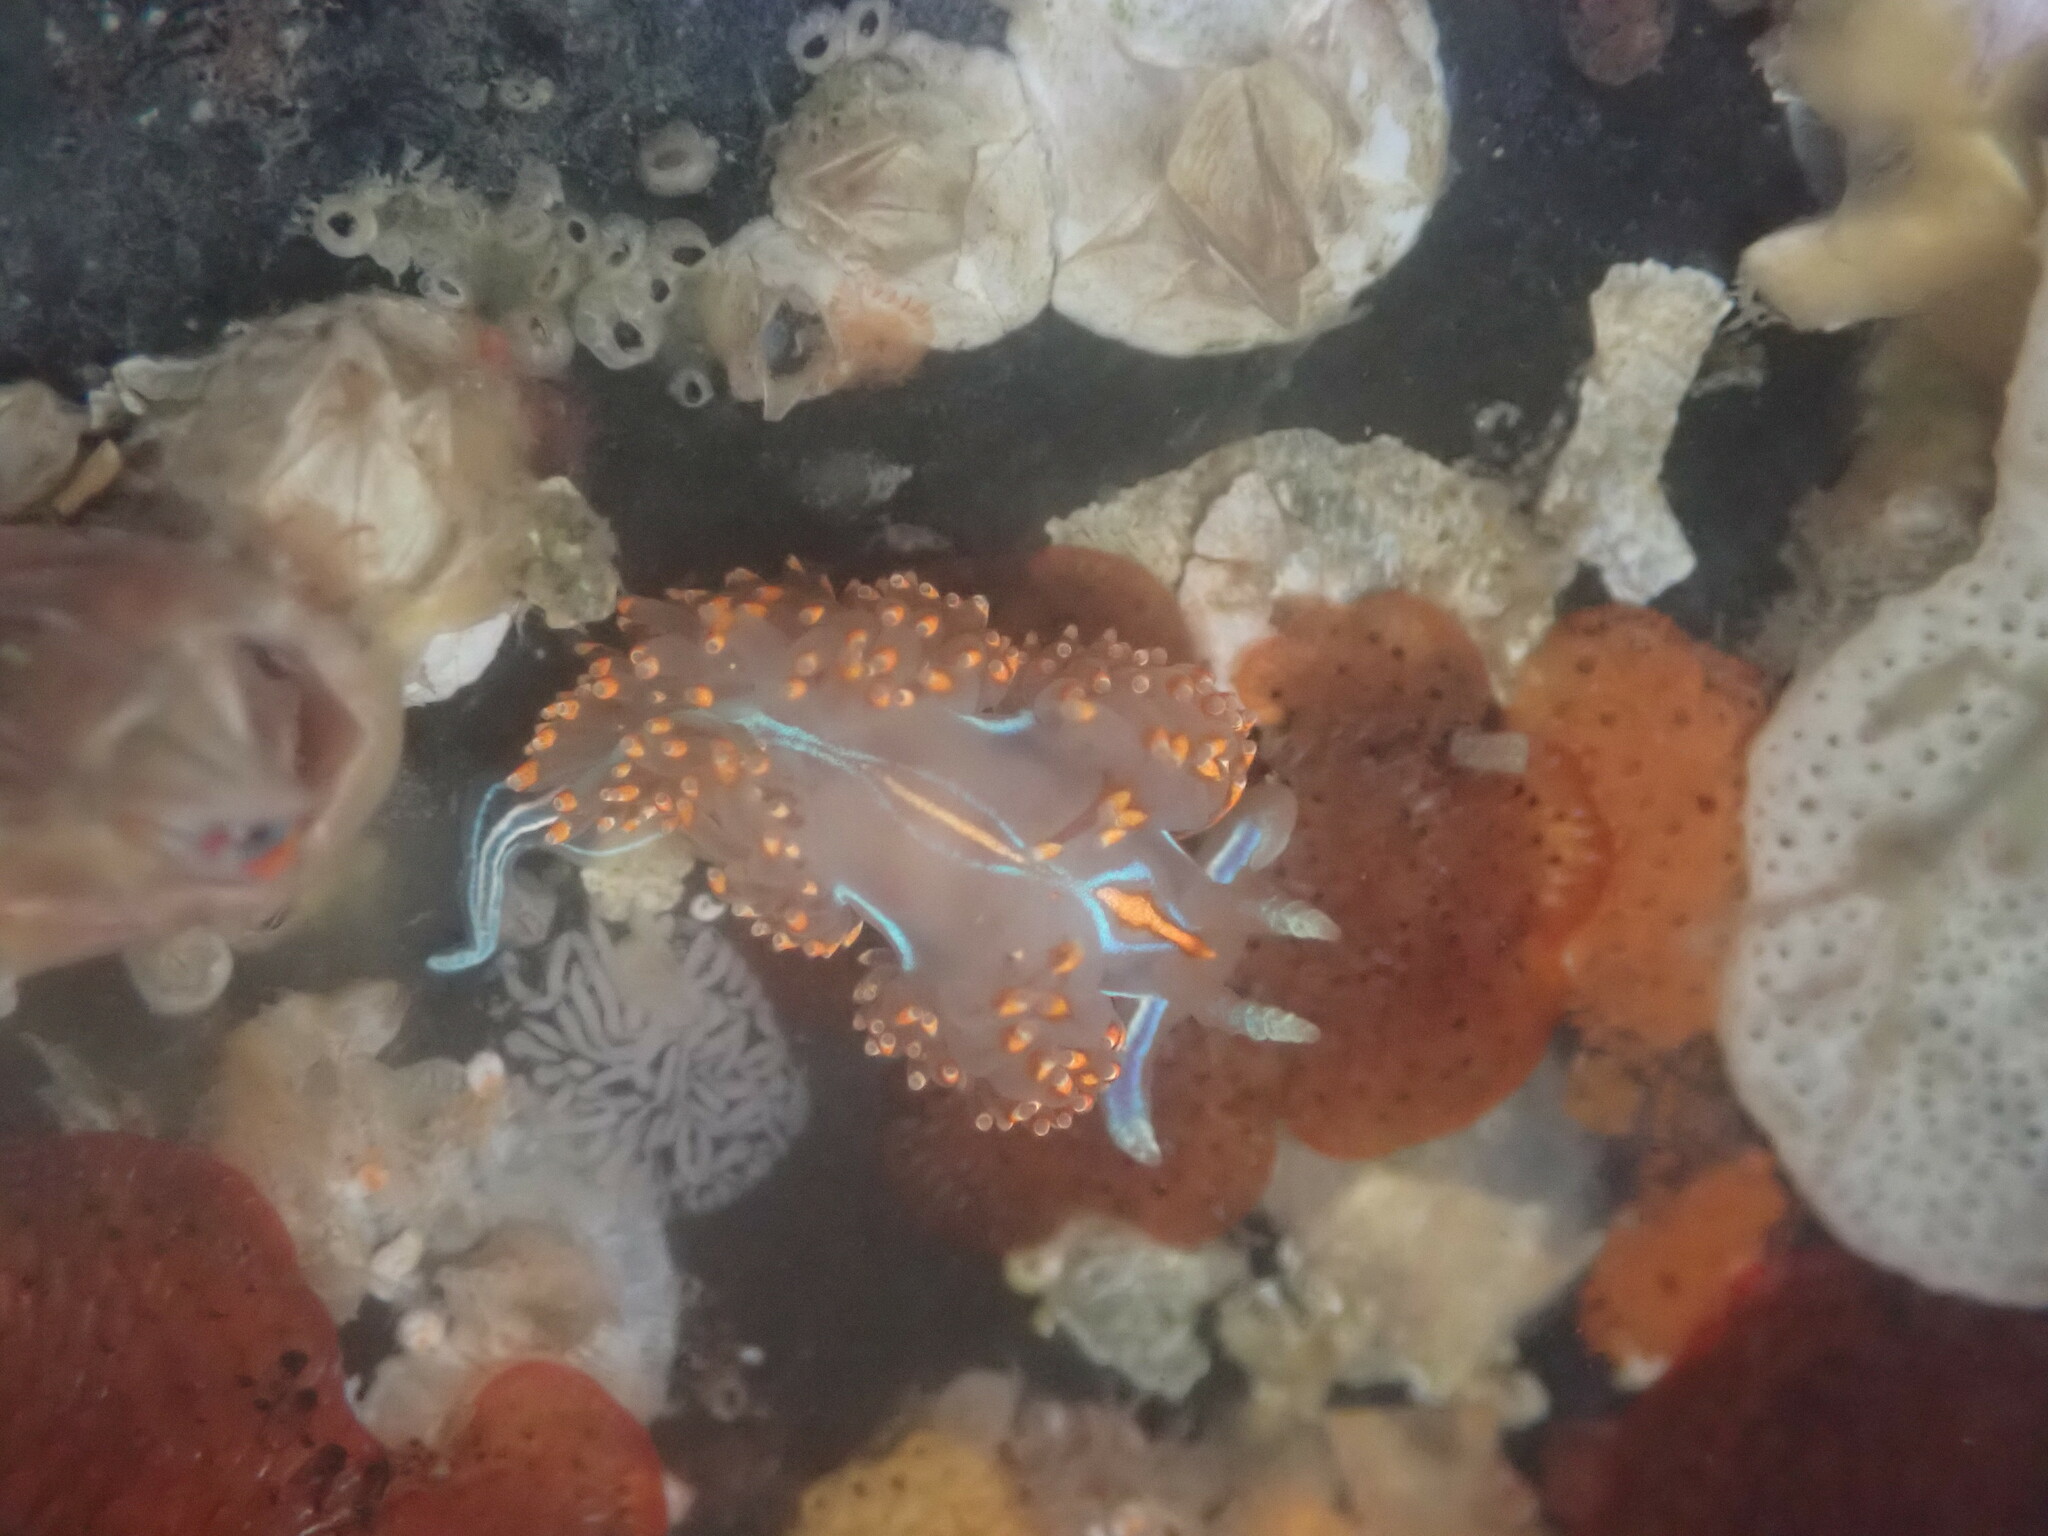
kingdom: Animalia
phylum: Mollusca
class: Gastropoda
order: Nudibranchia
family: Myrrhinidae
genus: Hermissenda
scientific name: Hermissenda opalescens
